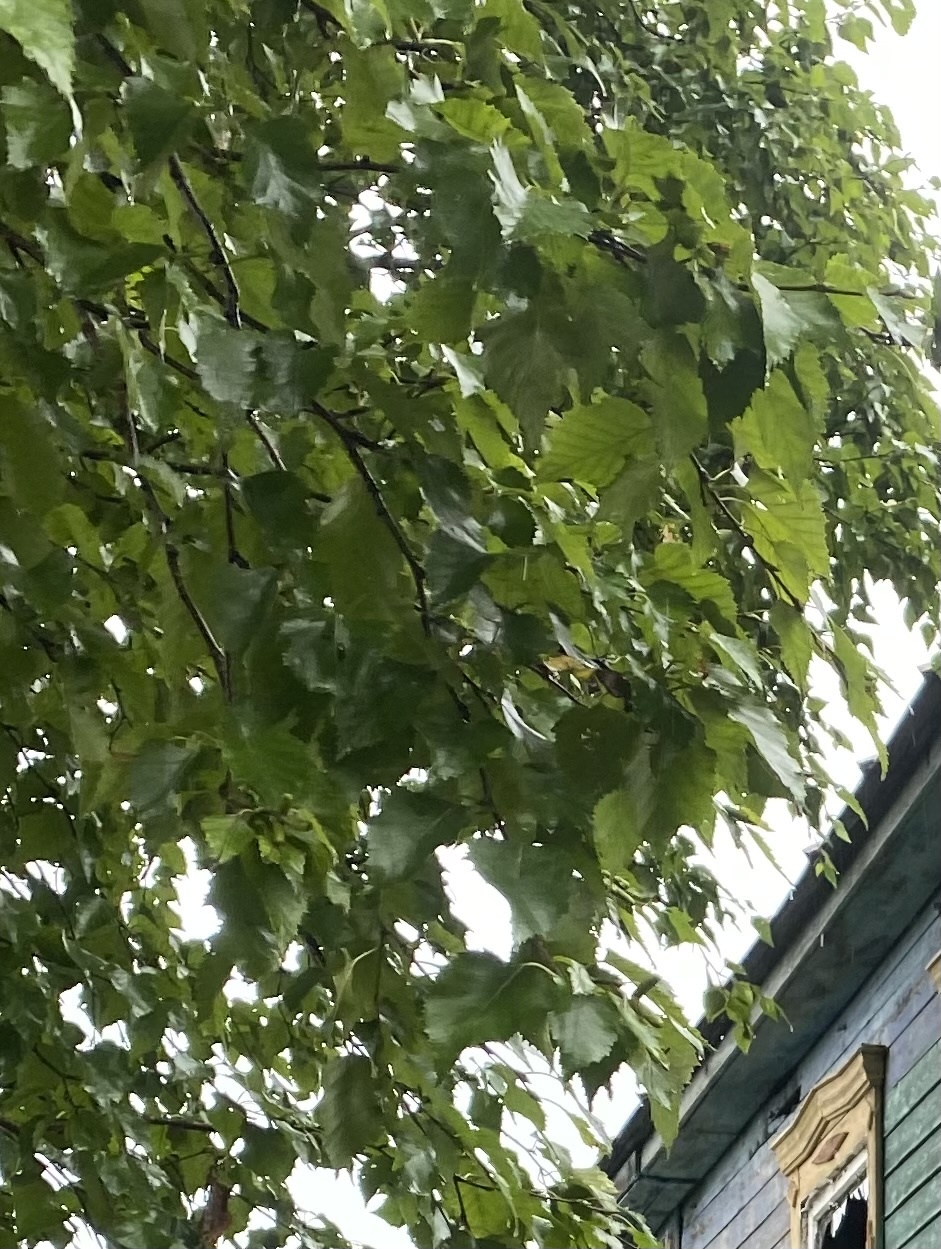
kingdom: Plantae
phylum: Tracheophyta
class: Magnoliopsida
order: Fagales
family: Betulaceae
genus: Betula
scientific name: Betula ermanii
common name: Erman's birch
